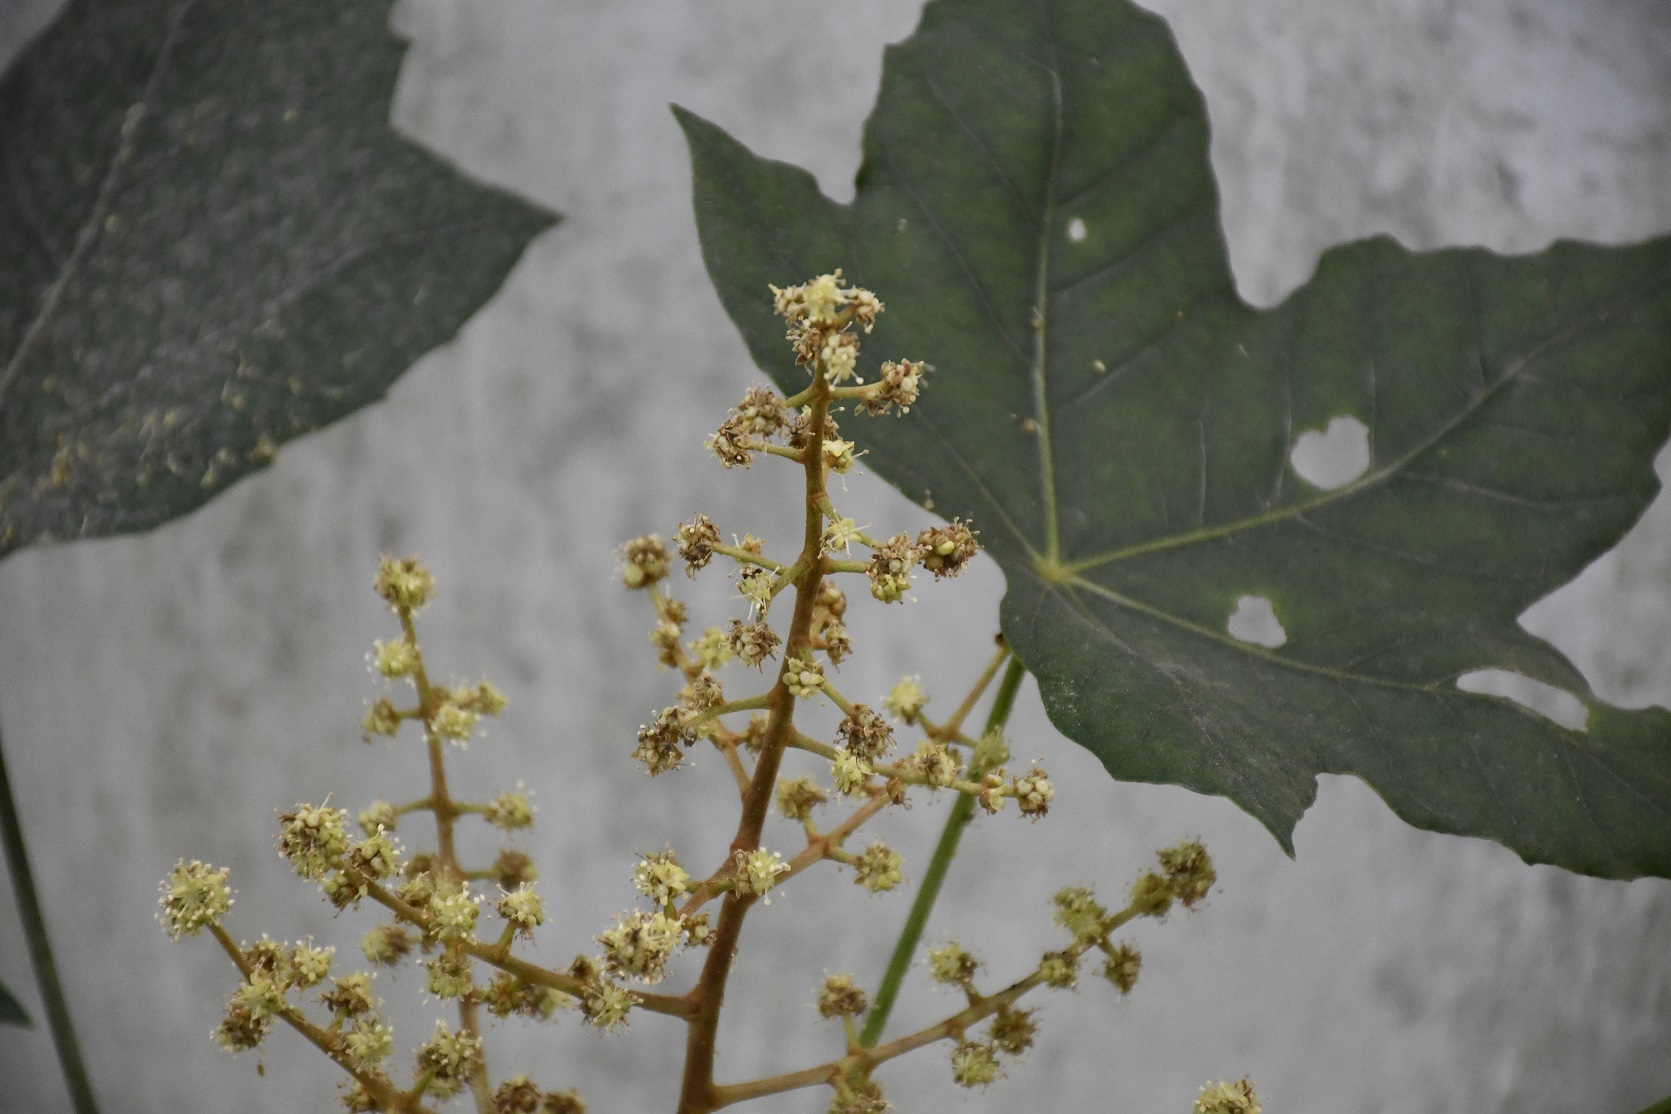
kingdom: Plantae
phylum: Tracheophyta
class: Magnoliopsida
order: Apiales
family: Araliaceae
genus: Oreopanax
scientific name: Oreopanax peltatus
